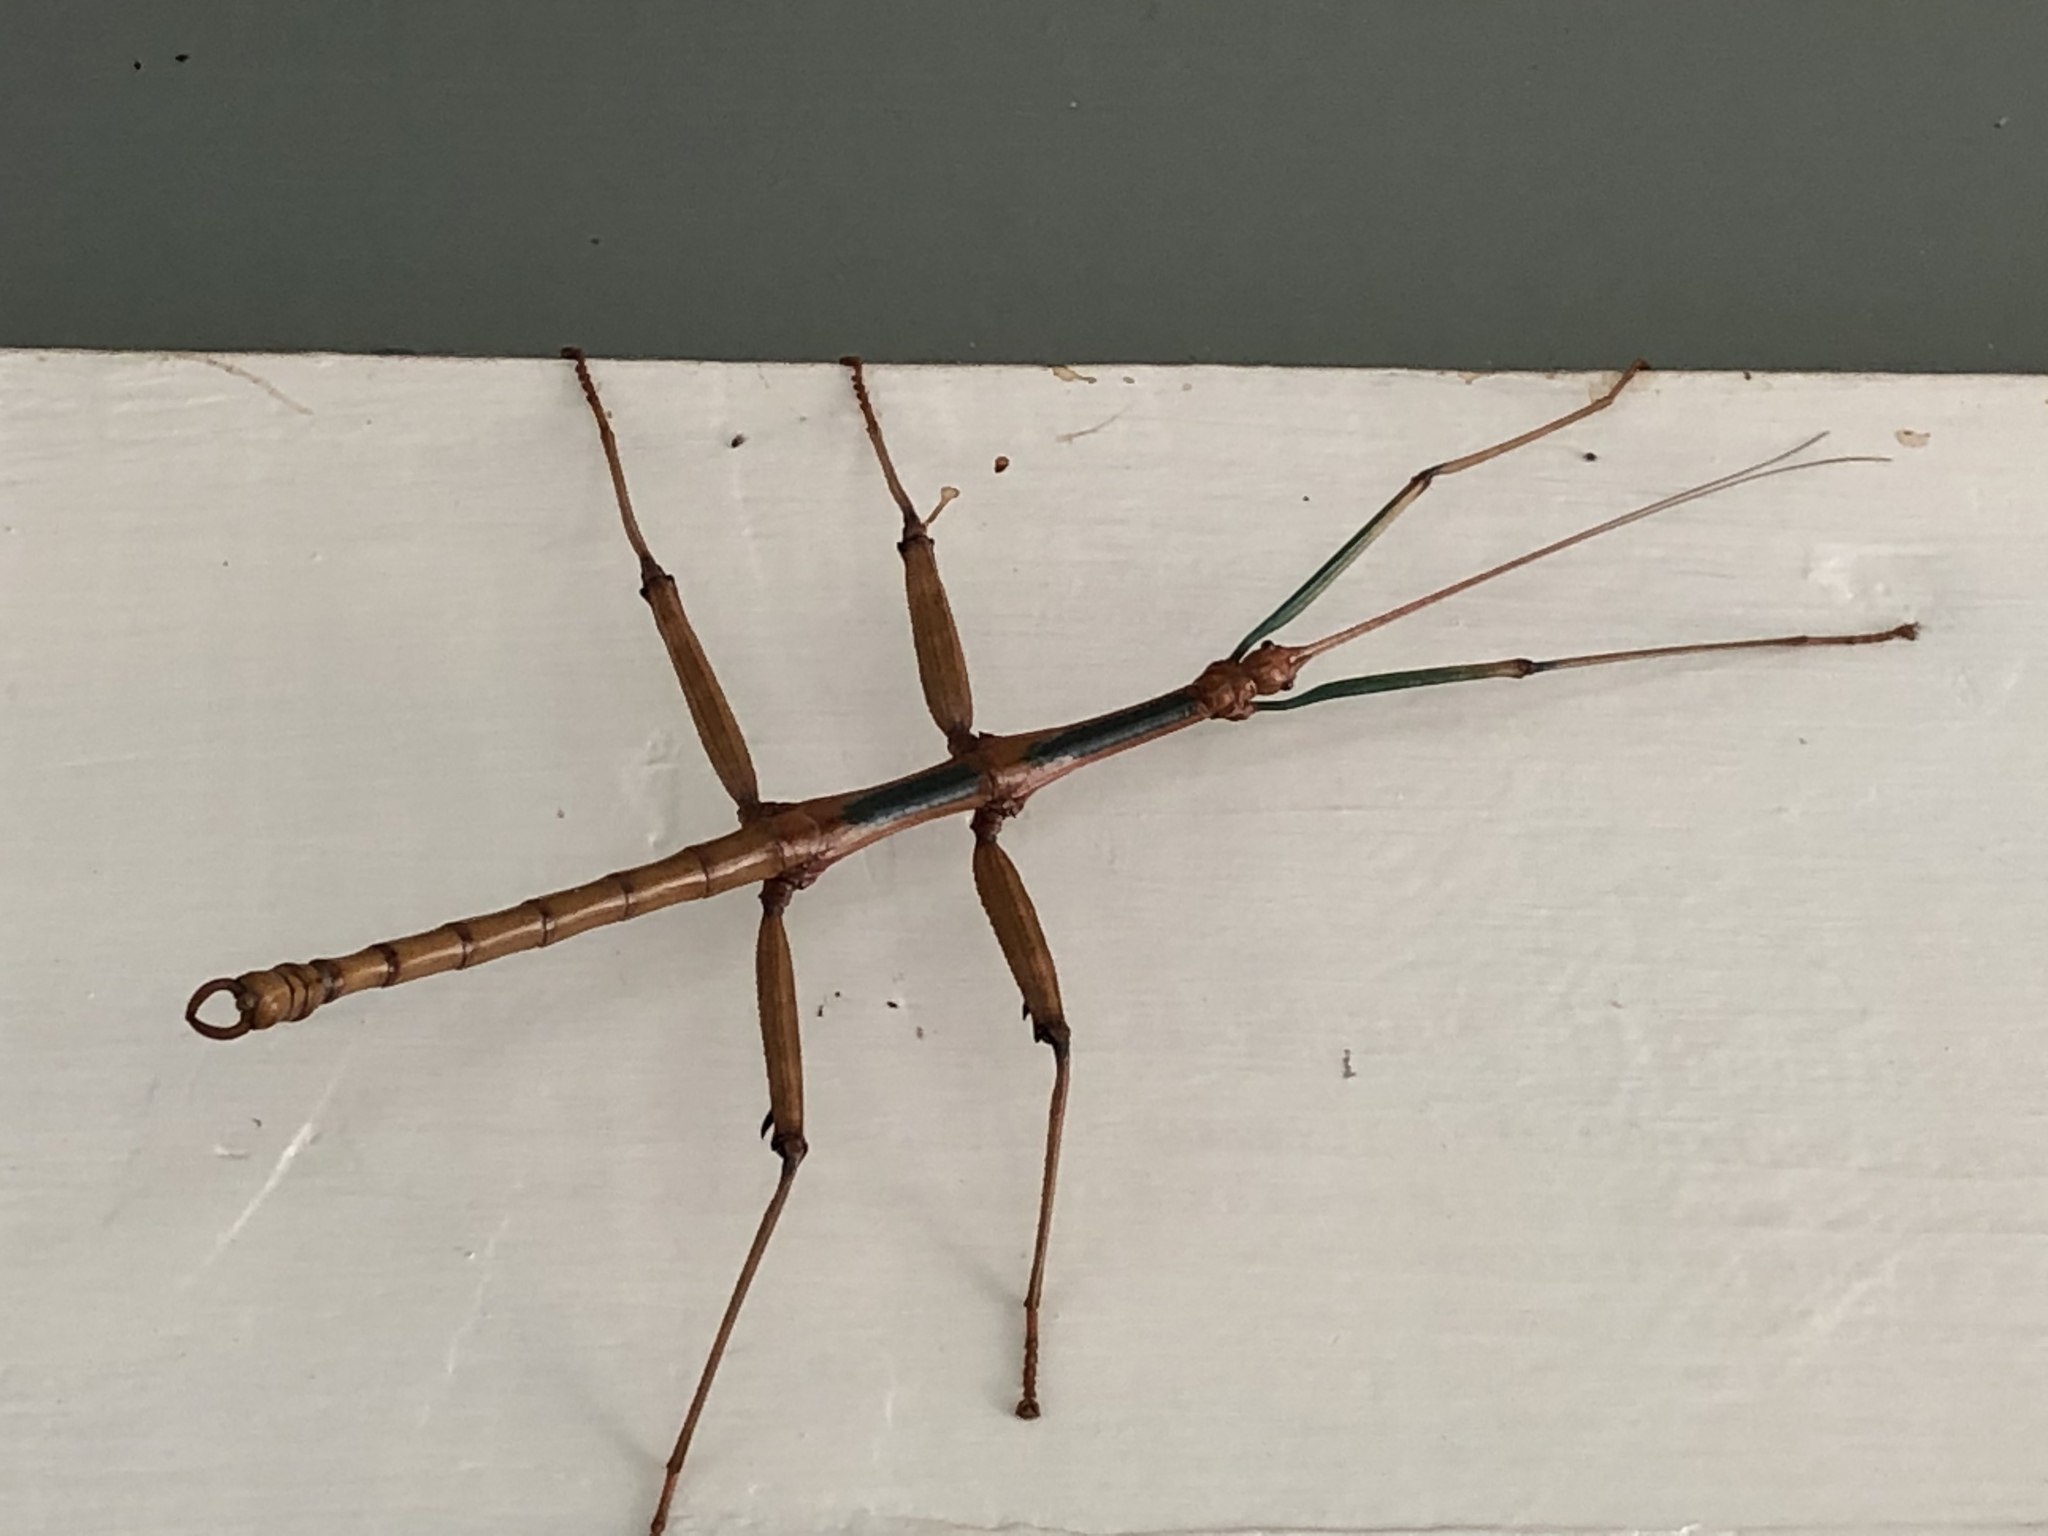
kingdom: Animalia
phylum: Arthropoda
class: Insecta
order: Phasmida
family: Diapheromeridae
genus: Megaphasma
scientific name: Megaphasma denticrus
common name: Giant walkingstick
